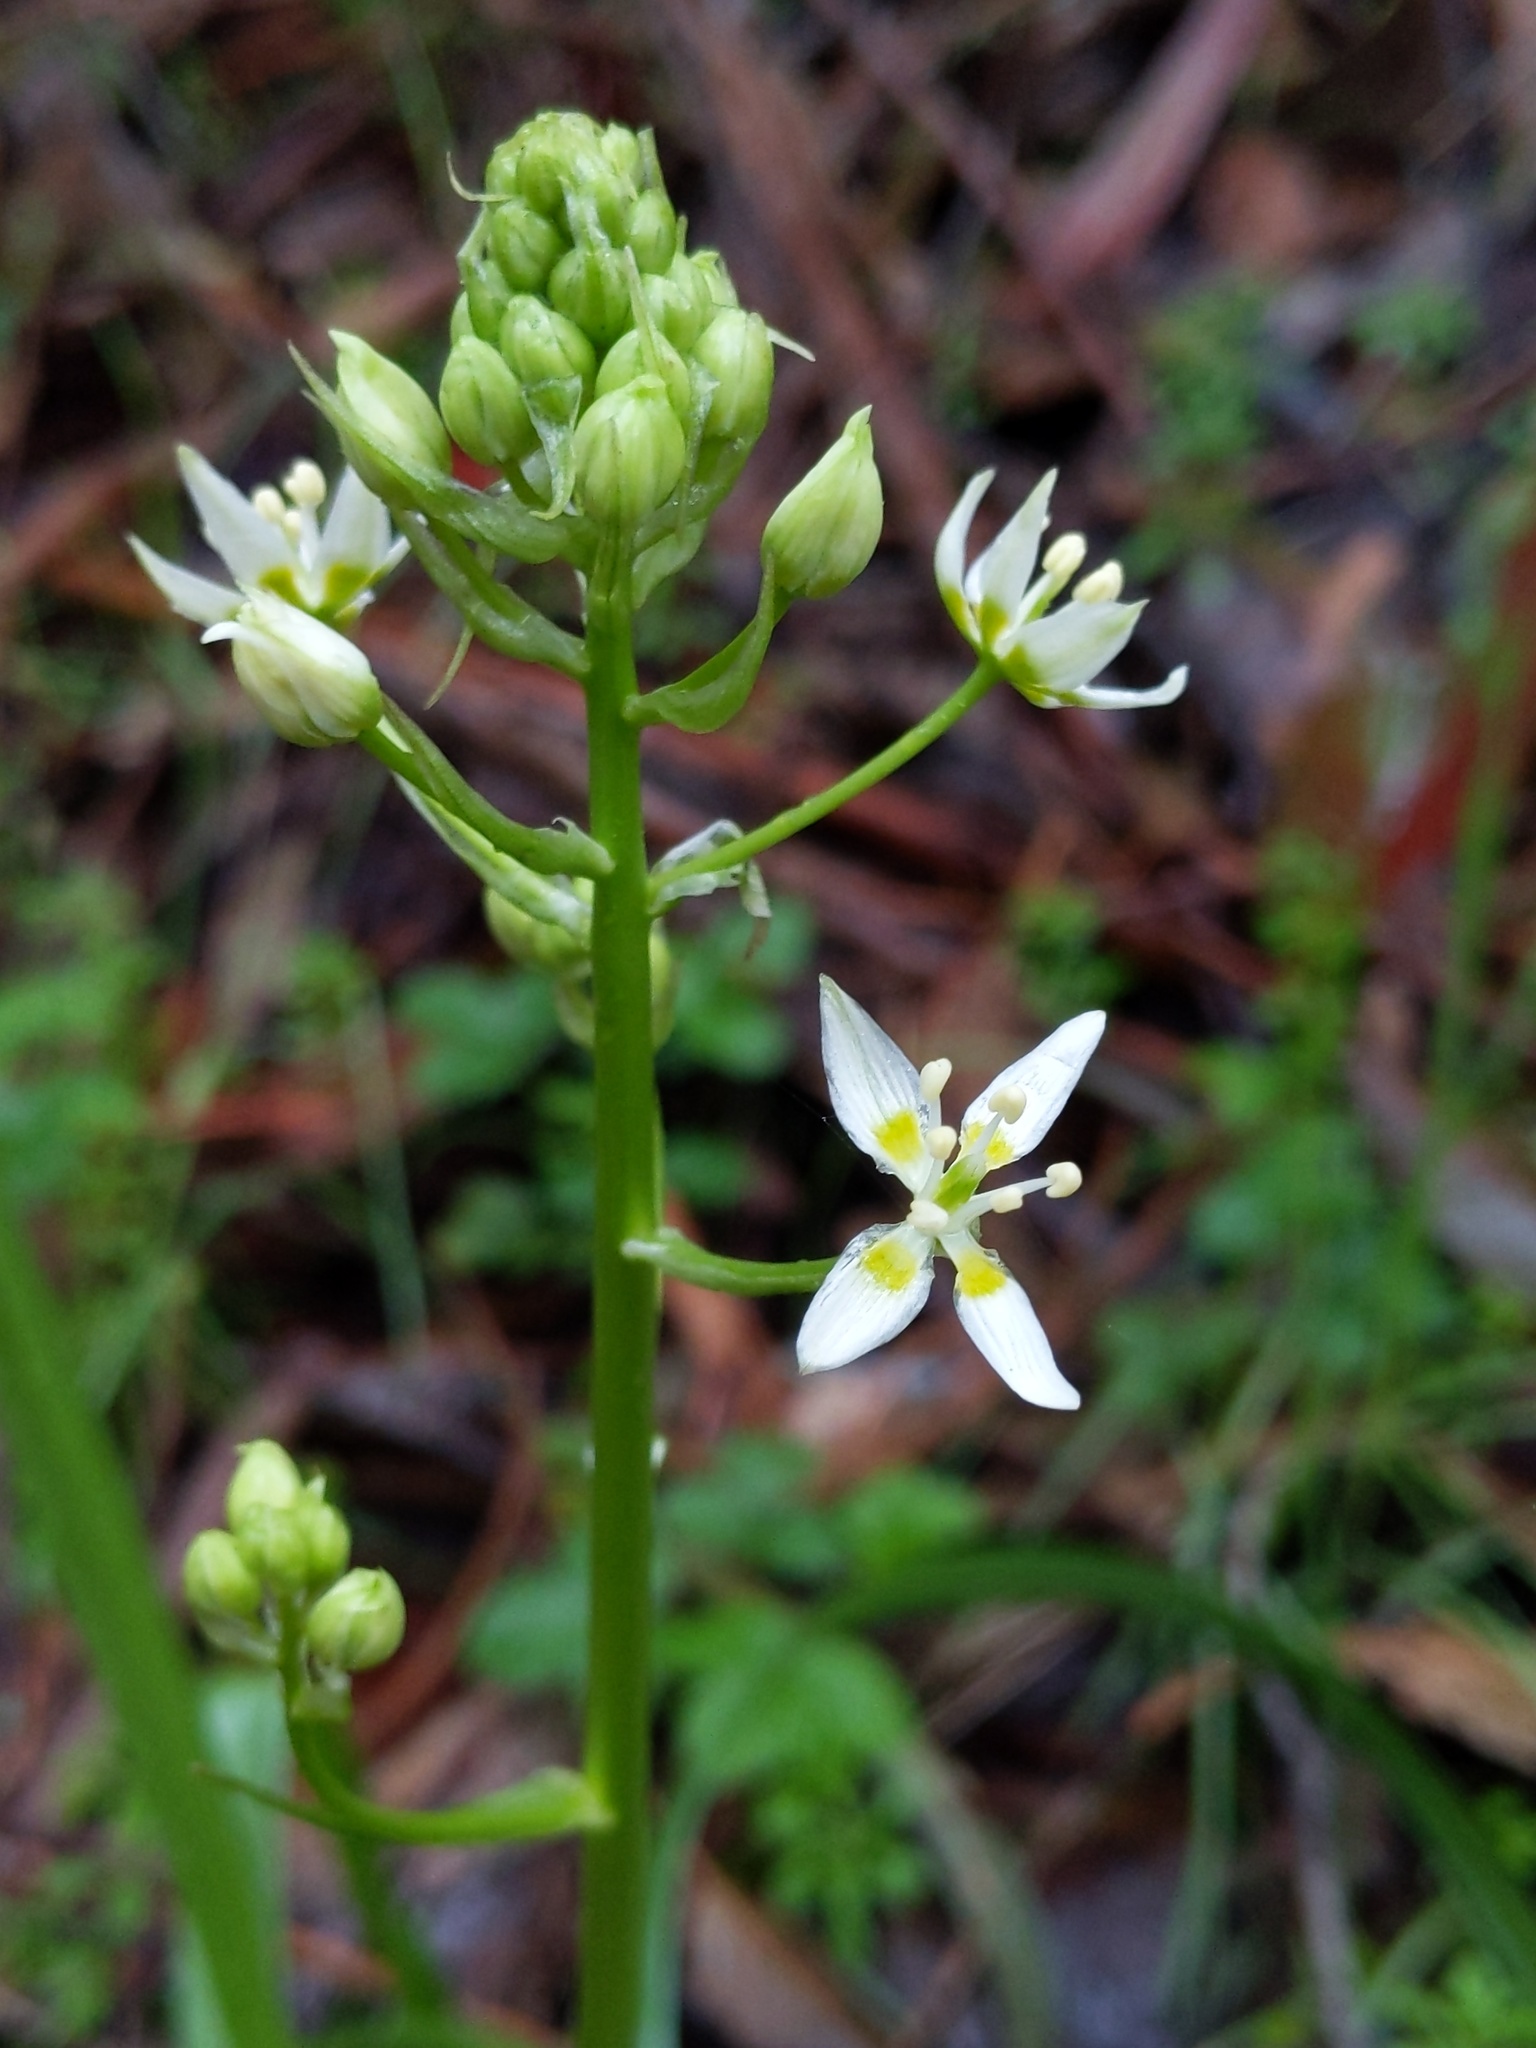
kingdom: Plantae
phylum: Tracheophyta
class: Liliopsida
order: Liliales
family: Melanthiaceae
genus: Toxicoscordion
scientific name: Toxicoscordion fremontii
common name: Fremont's death camas
